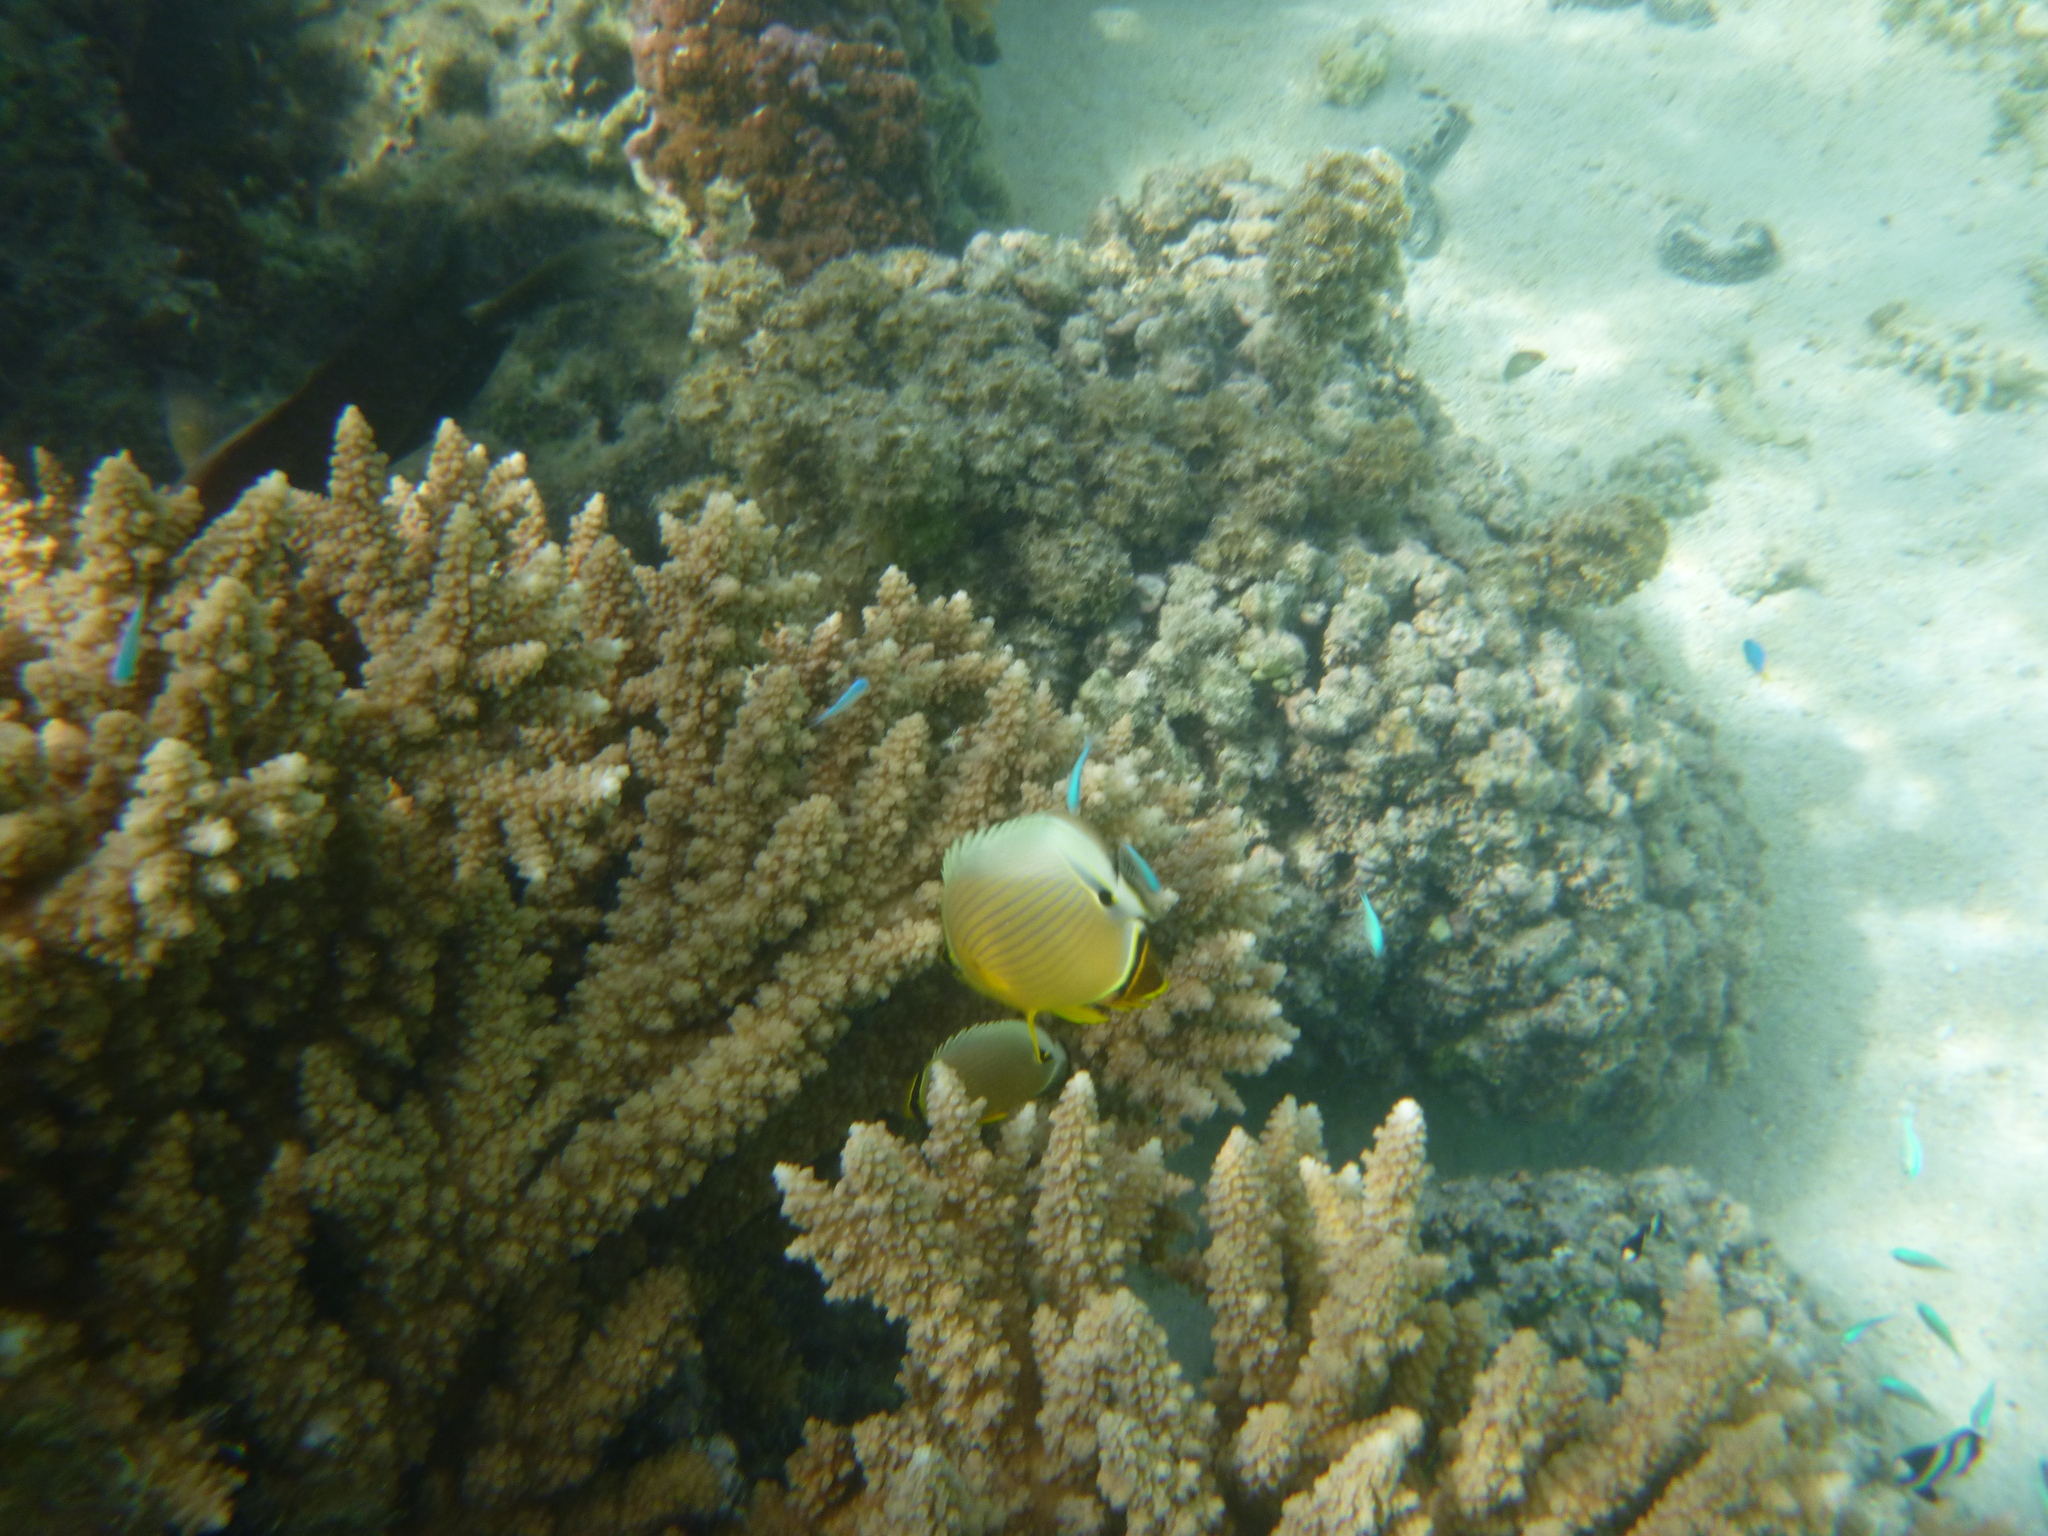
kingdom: Animalia
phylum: Chordata
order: Perciformes
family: Chaetodontidae
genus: Chaetodon
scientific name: Chaetodon lunulatus
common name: Redfin butterflyfish
